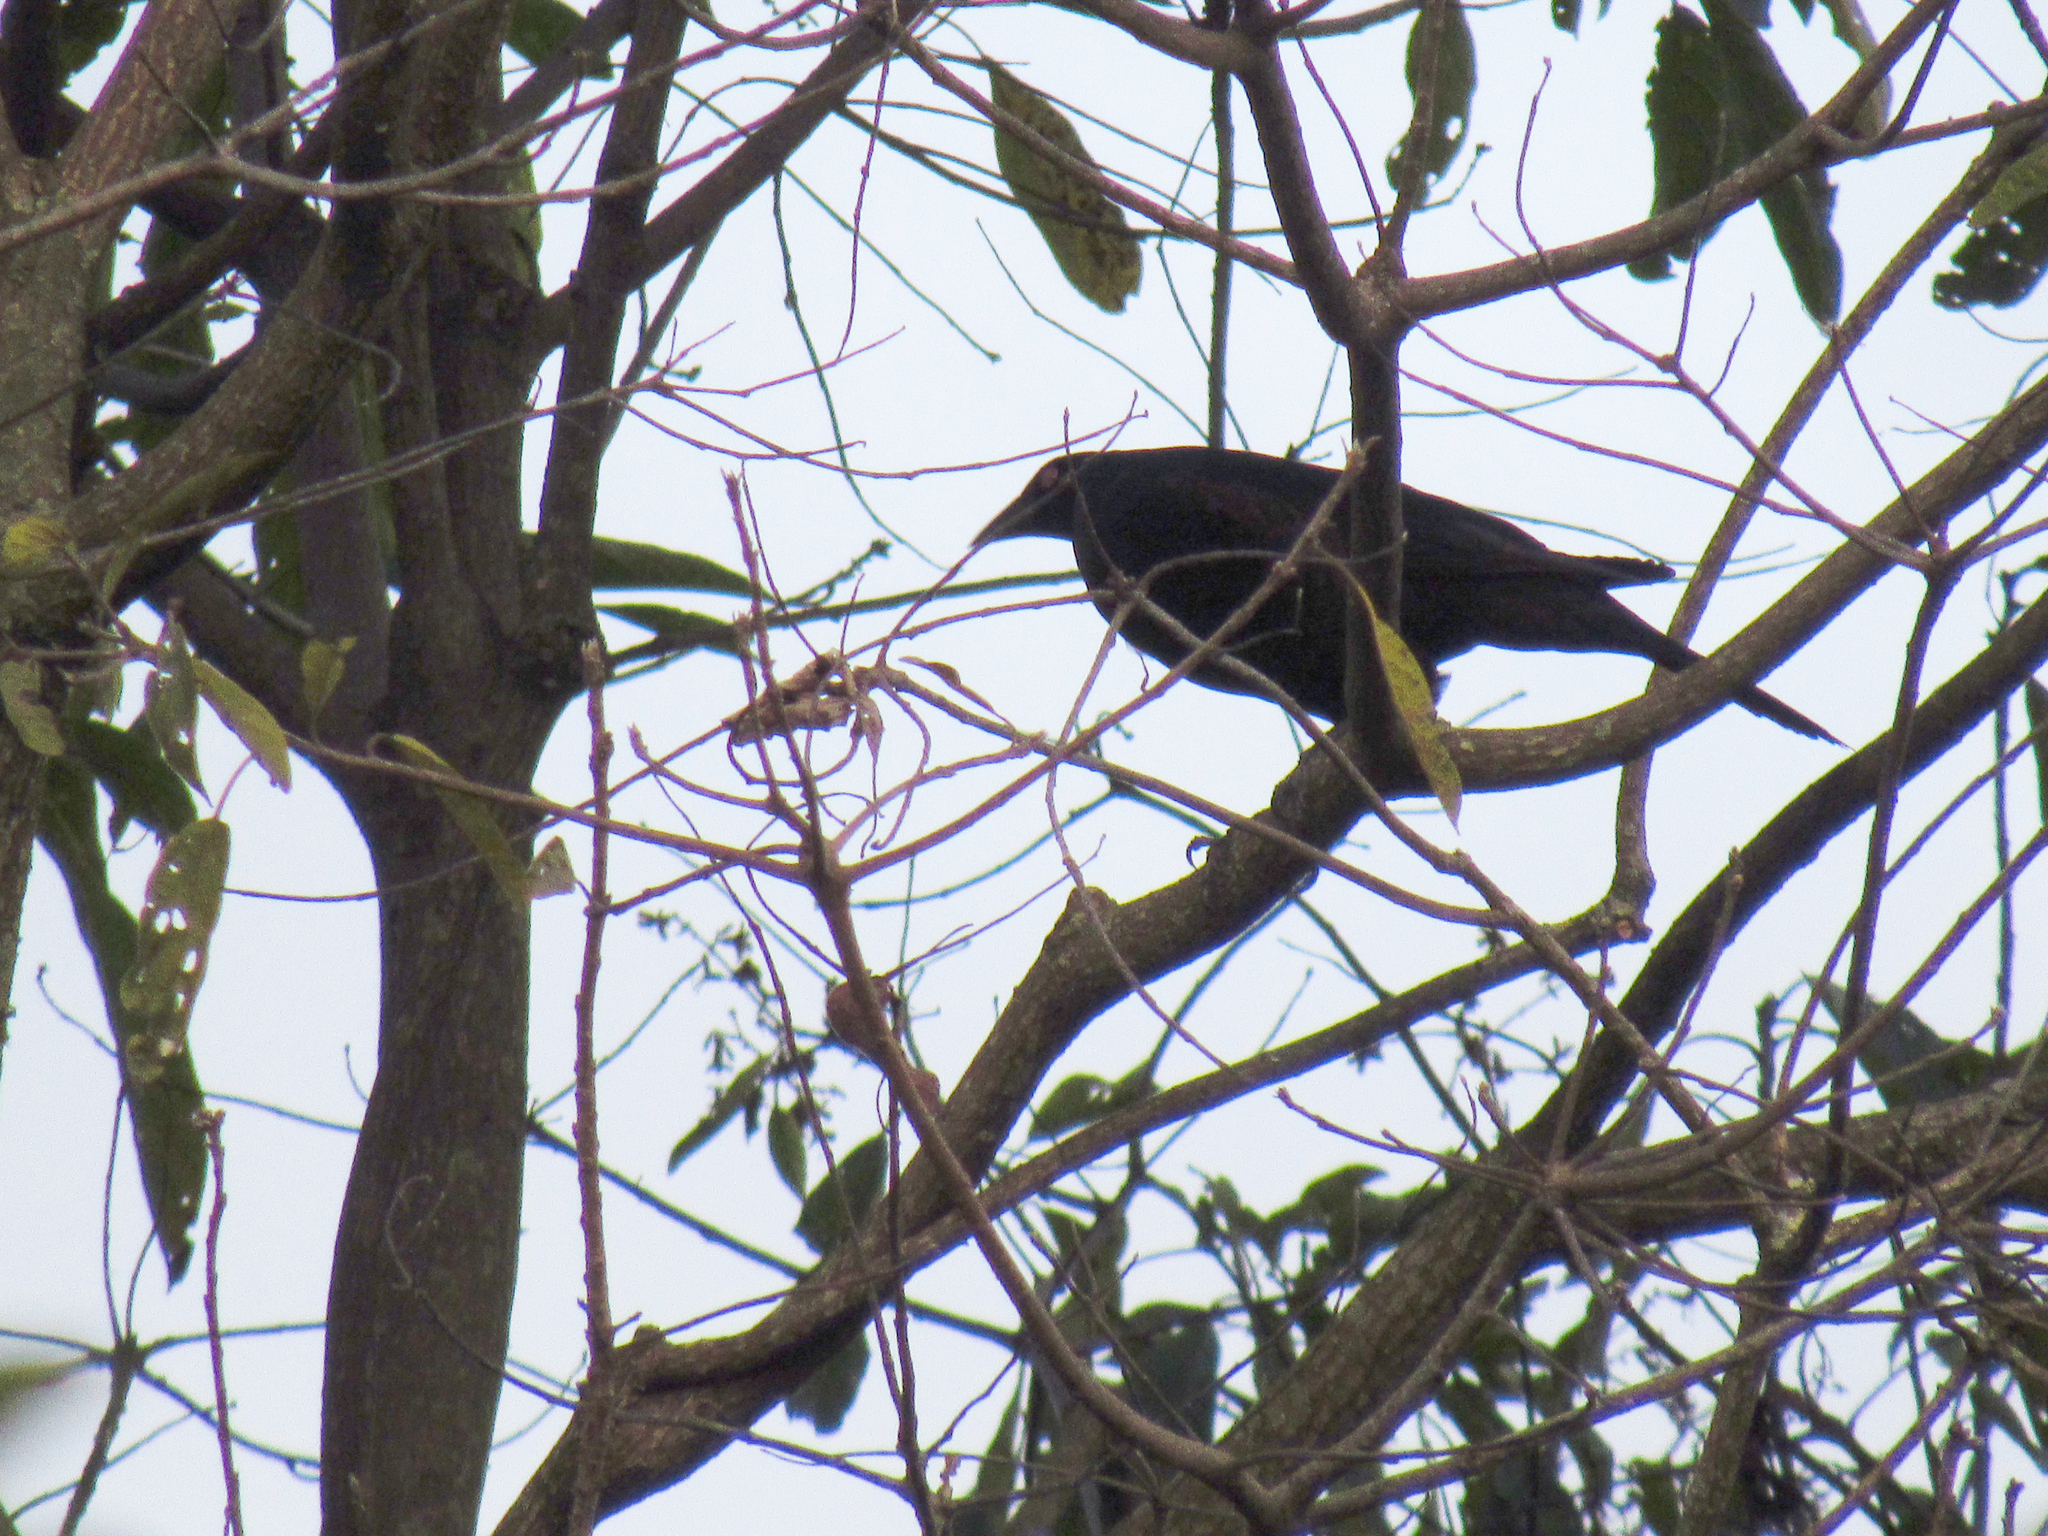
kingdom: Animalia
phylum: Chordata
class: Aves
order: Passeriformes
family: Icteridae
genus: Molothrus
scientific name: Molothrus oryzivorus
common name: Giant cowbird
